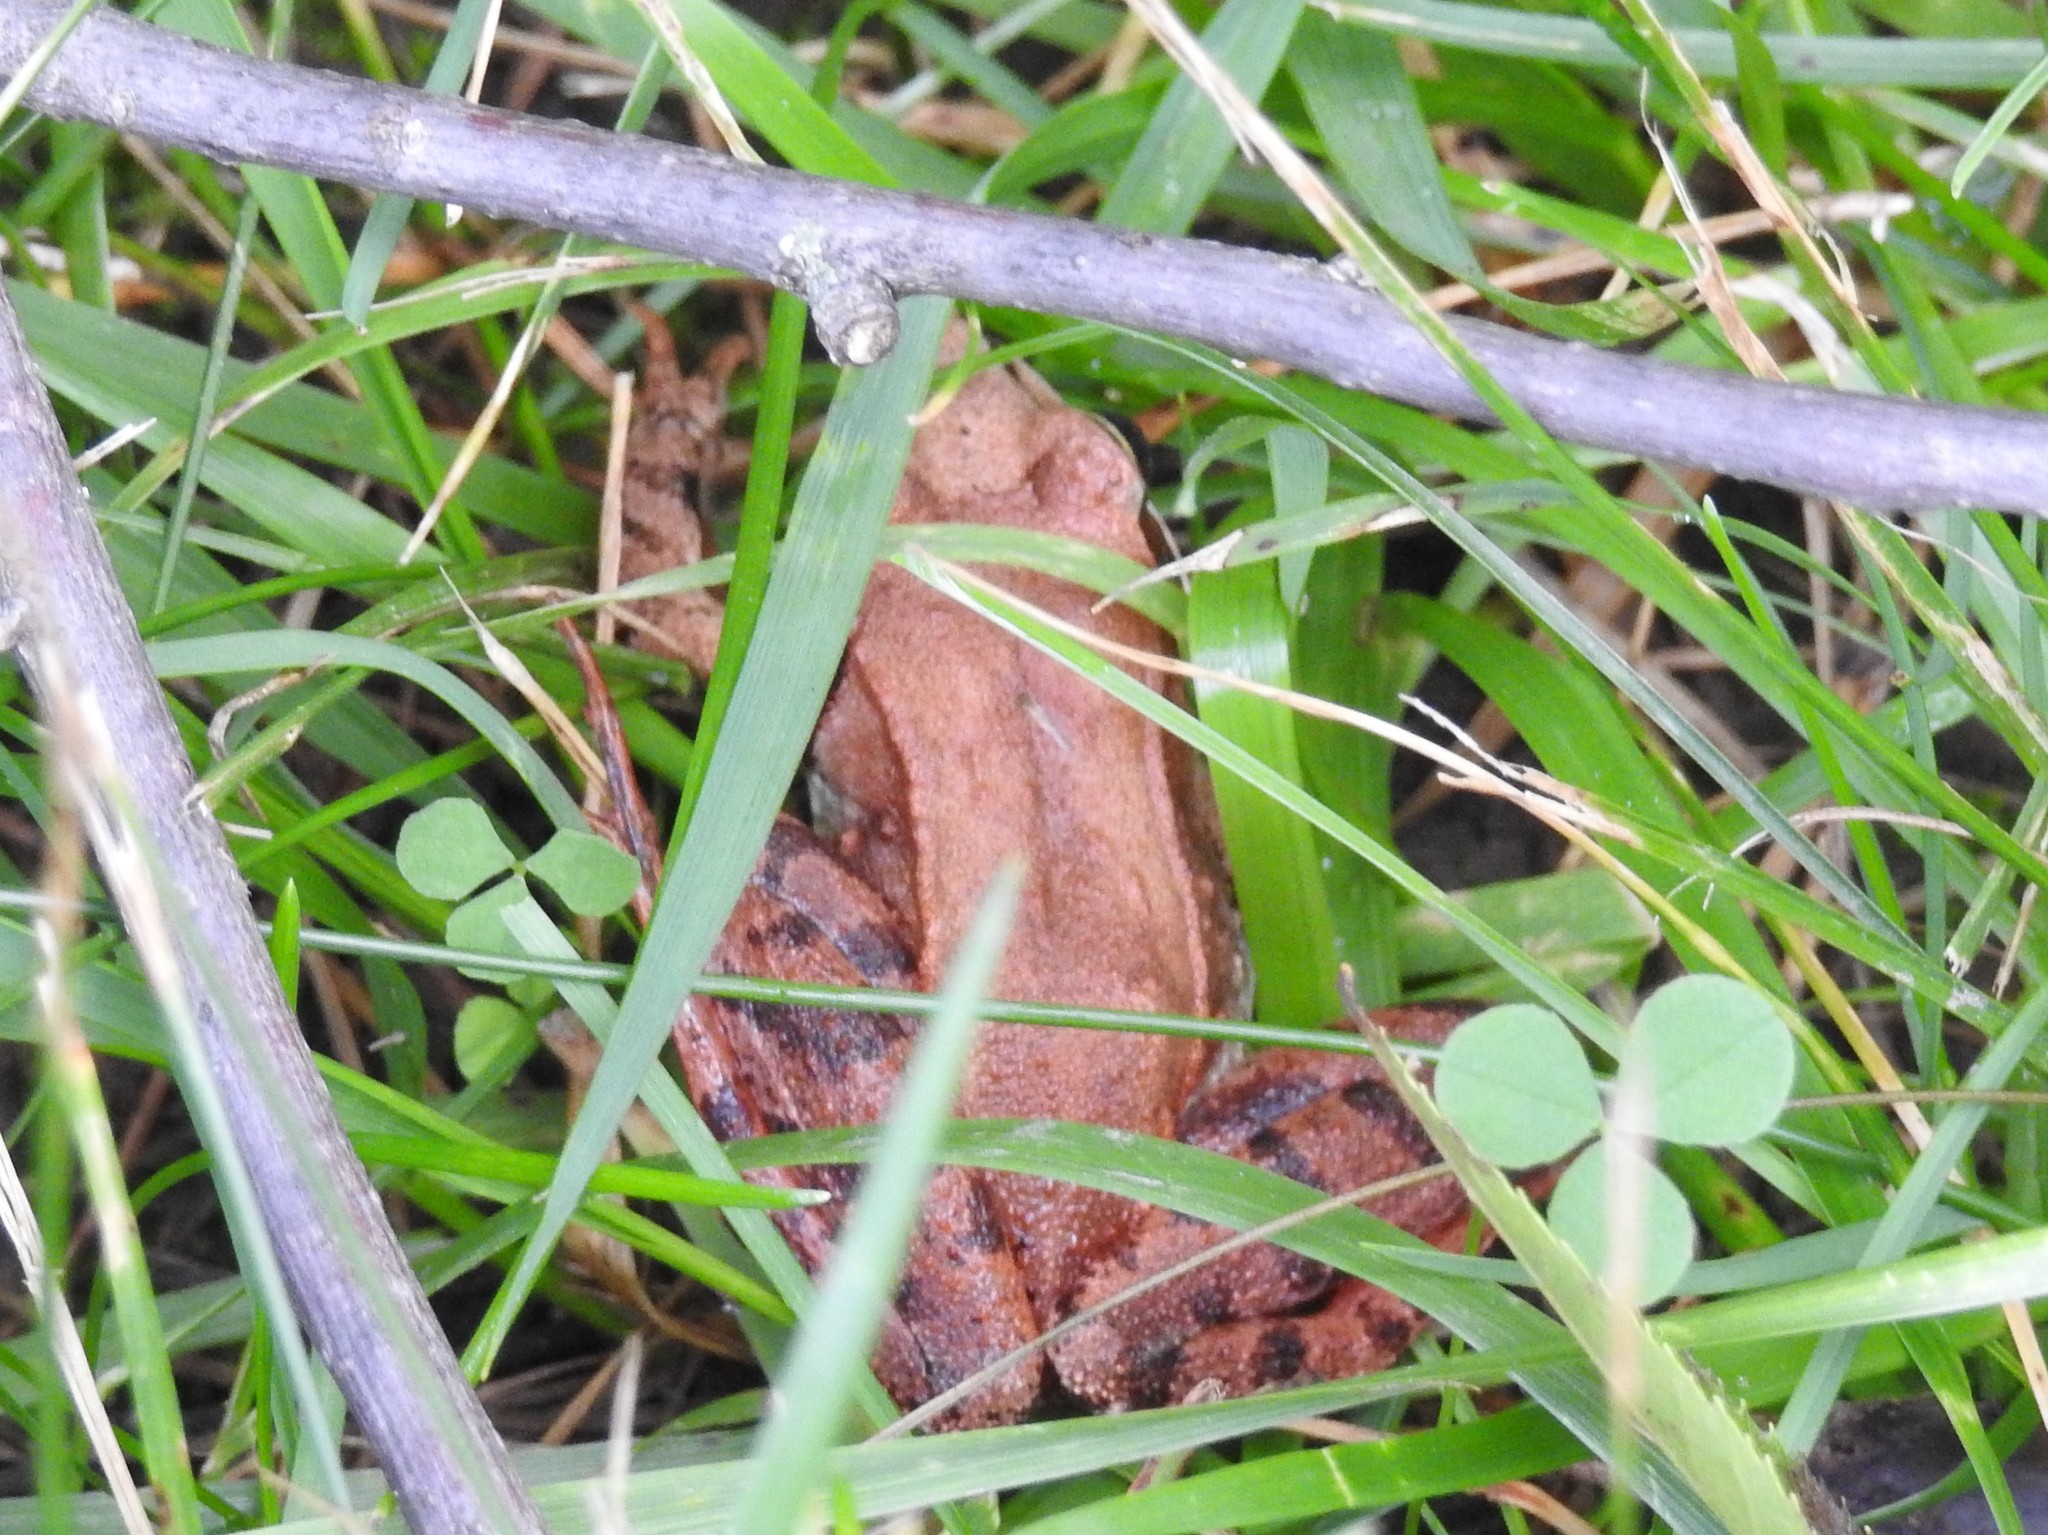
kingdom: Animalia
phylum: Chordata
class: Amphibia
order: Anura
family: Ranidae
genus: Lithobates
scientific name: Lithobates sylvaticus
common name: Wood frog
